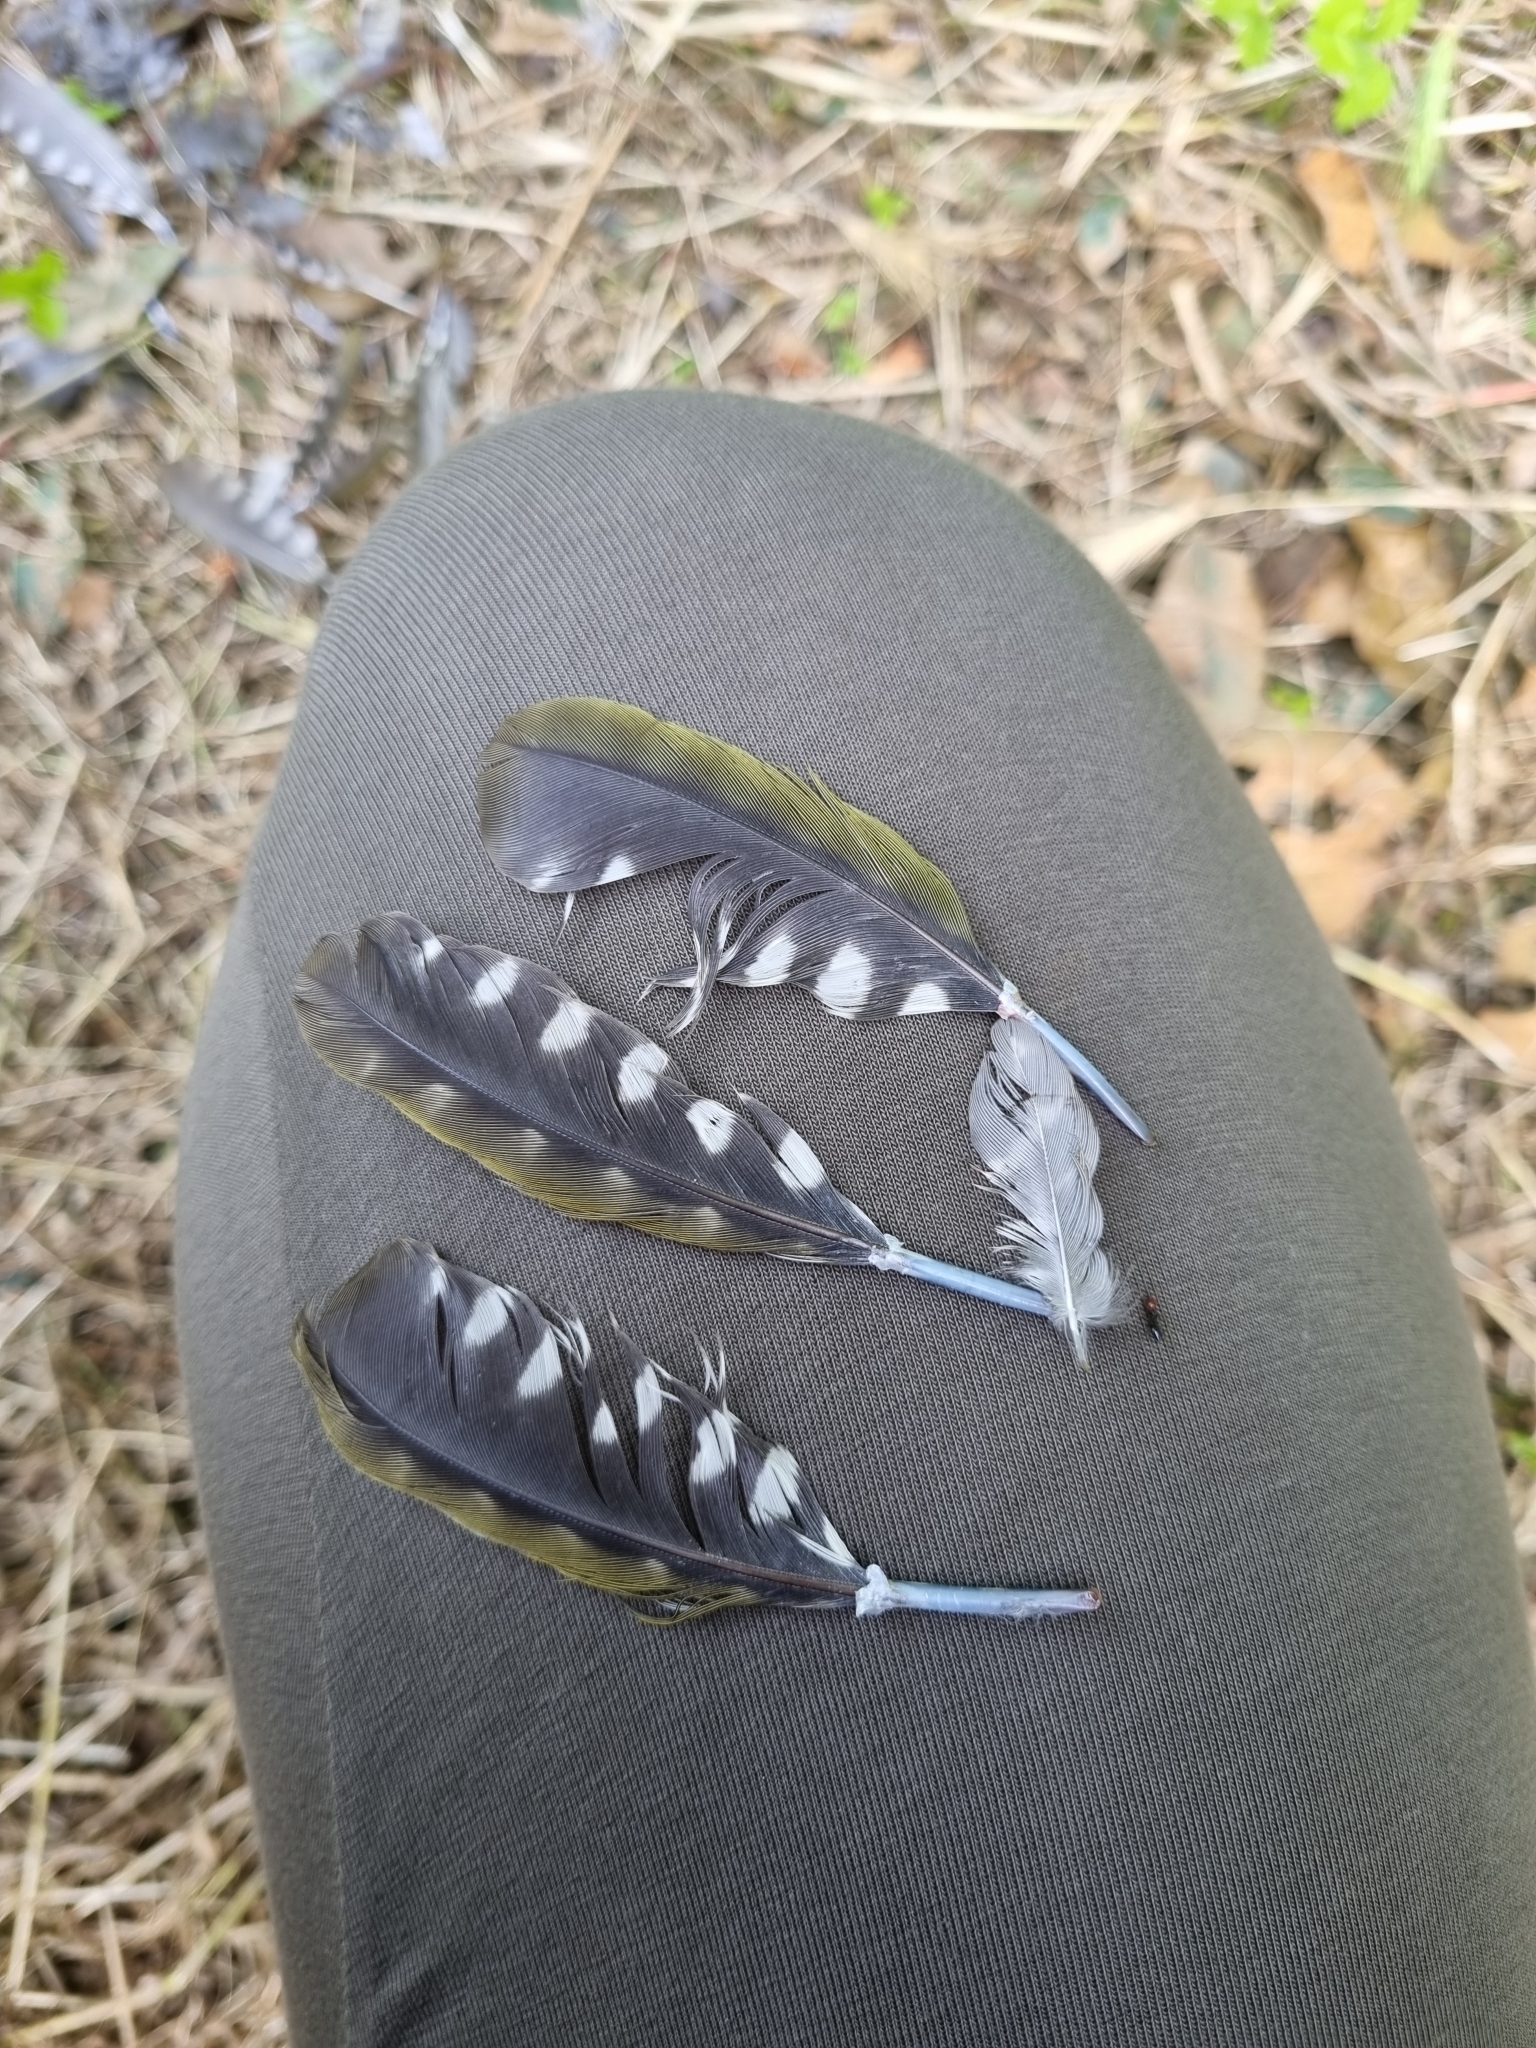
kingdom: Animalia
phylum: Chordata
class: Aves
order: Piciformes
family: Picidae
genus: Picus
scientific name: Picus viridis
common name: European green woodpecker
